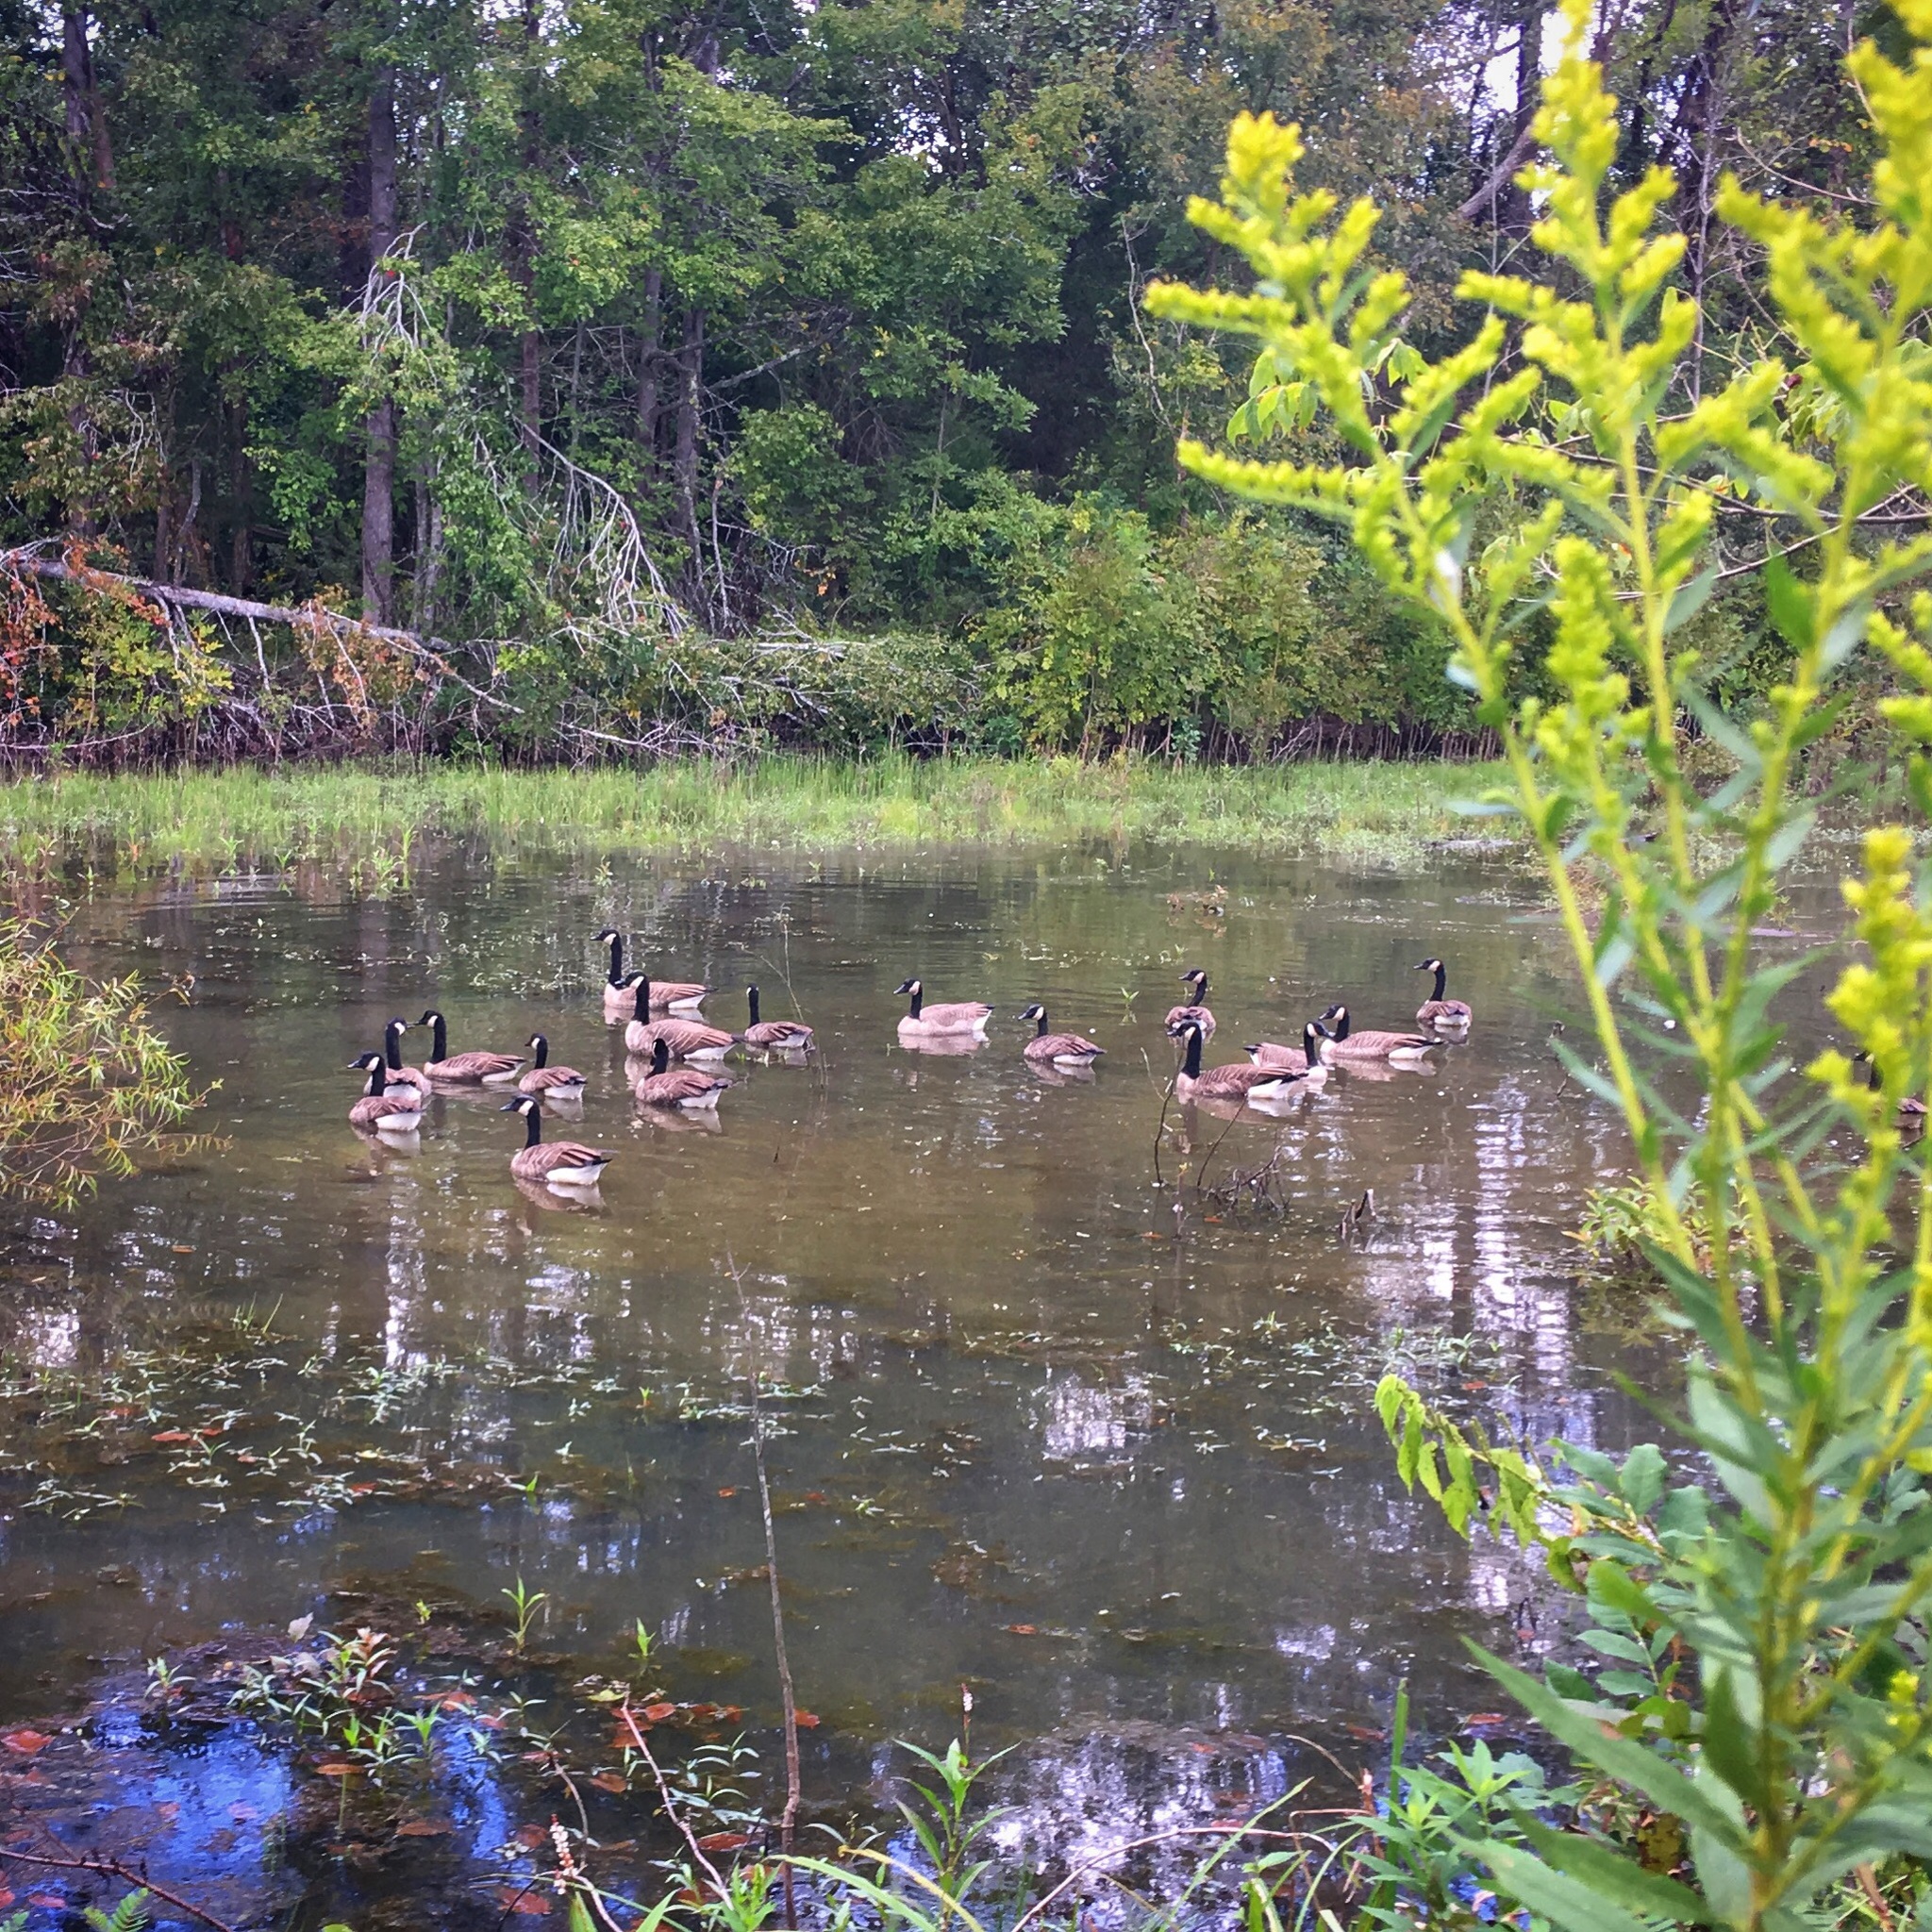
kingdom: Animalia
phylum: Chordata
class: Aves
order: Anseriformes
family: Anatidae
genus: Branta
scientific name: Branta canadensis
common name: Canada goose
